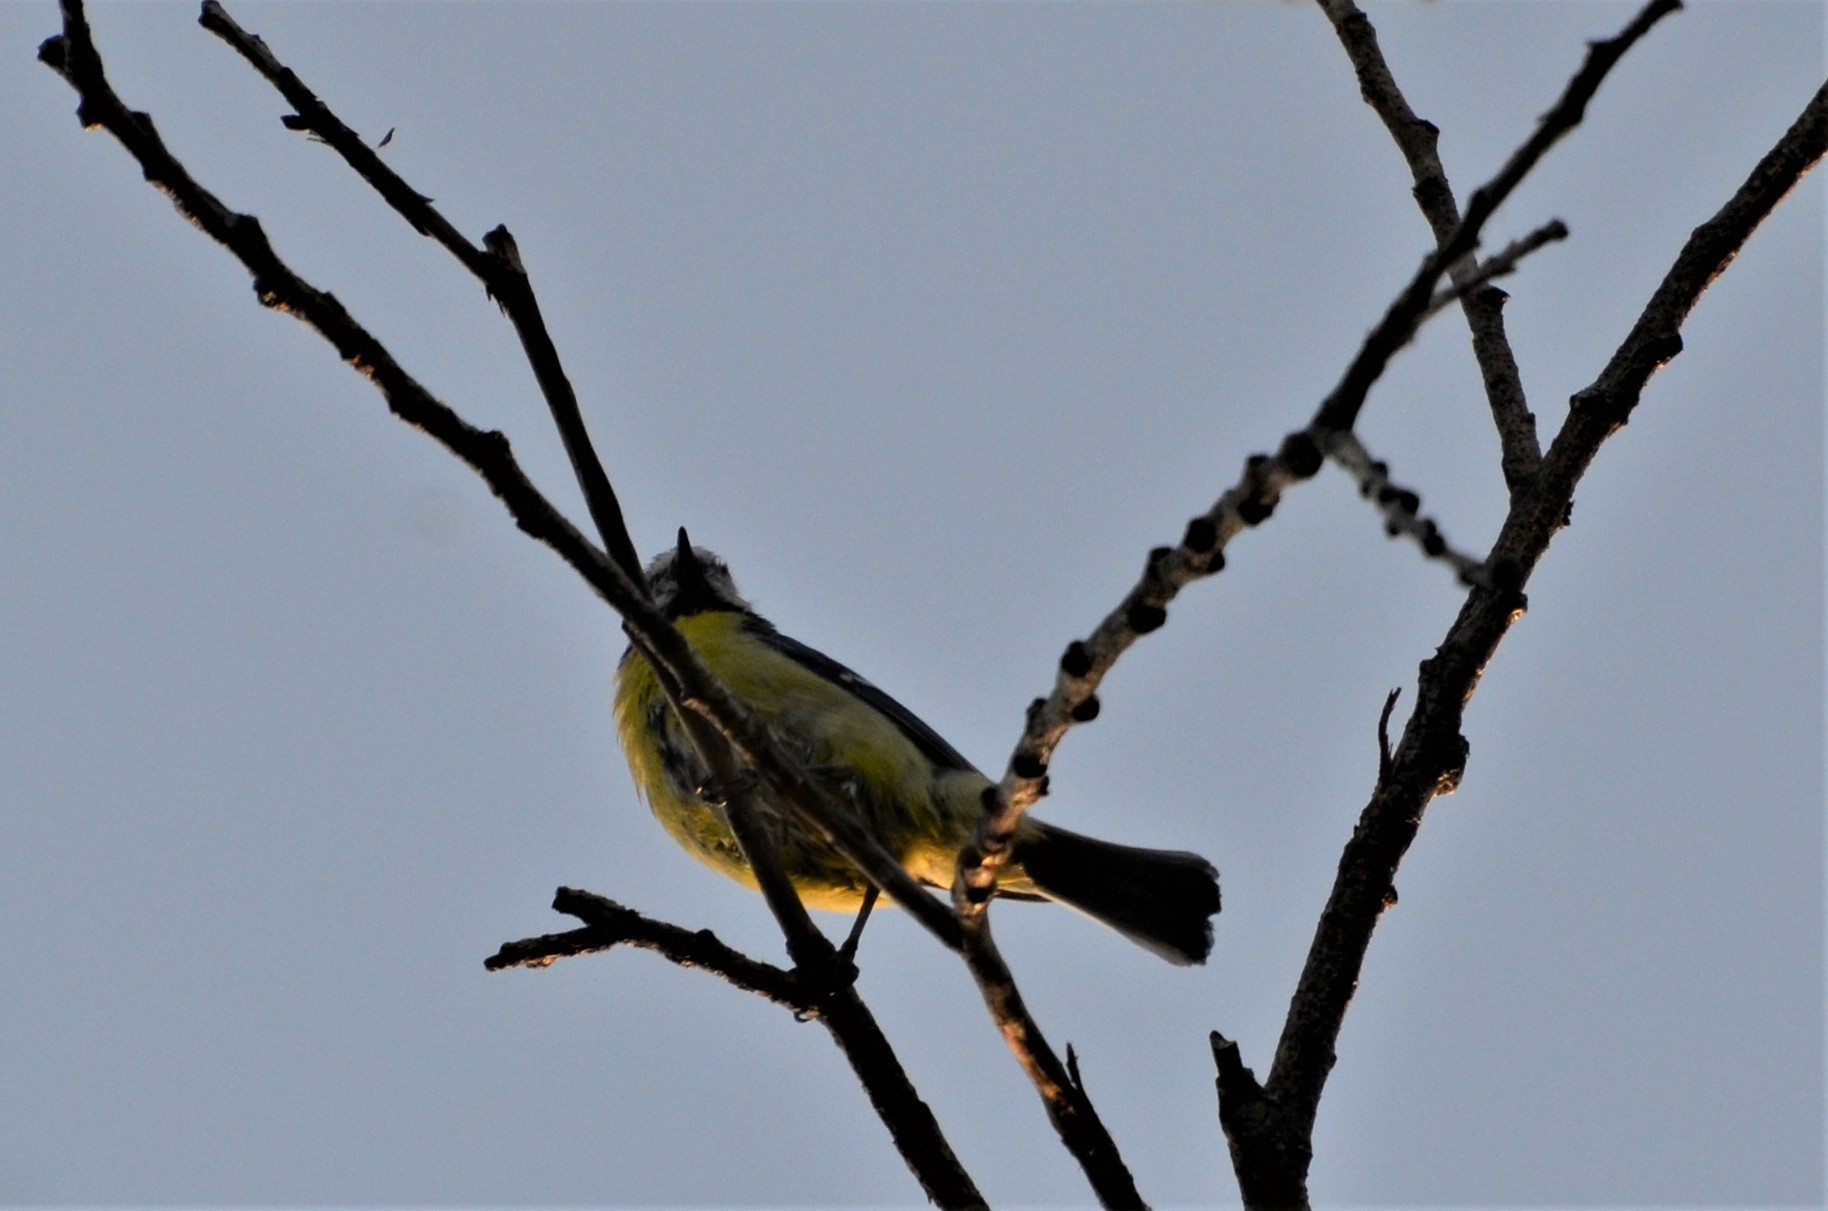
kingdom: Animalia
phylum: Chordata
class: Aves
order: Passeriformes
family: Paridae
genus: Cyanistes
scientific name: Cyanistes caeruleus
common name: Eurasian blue tit
